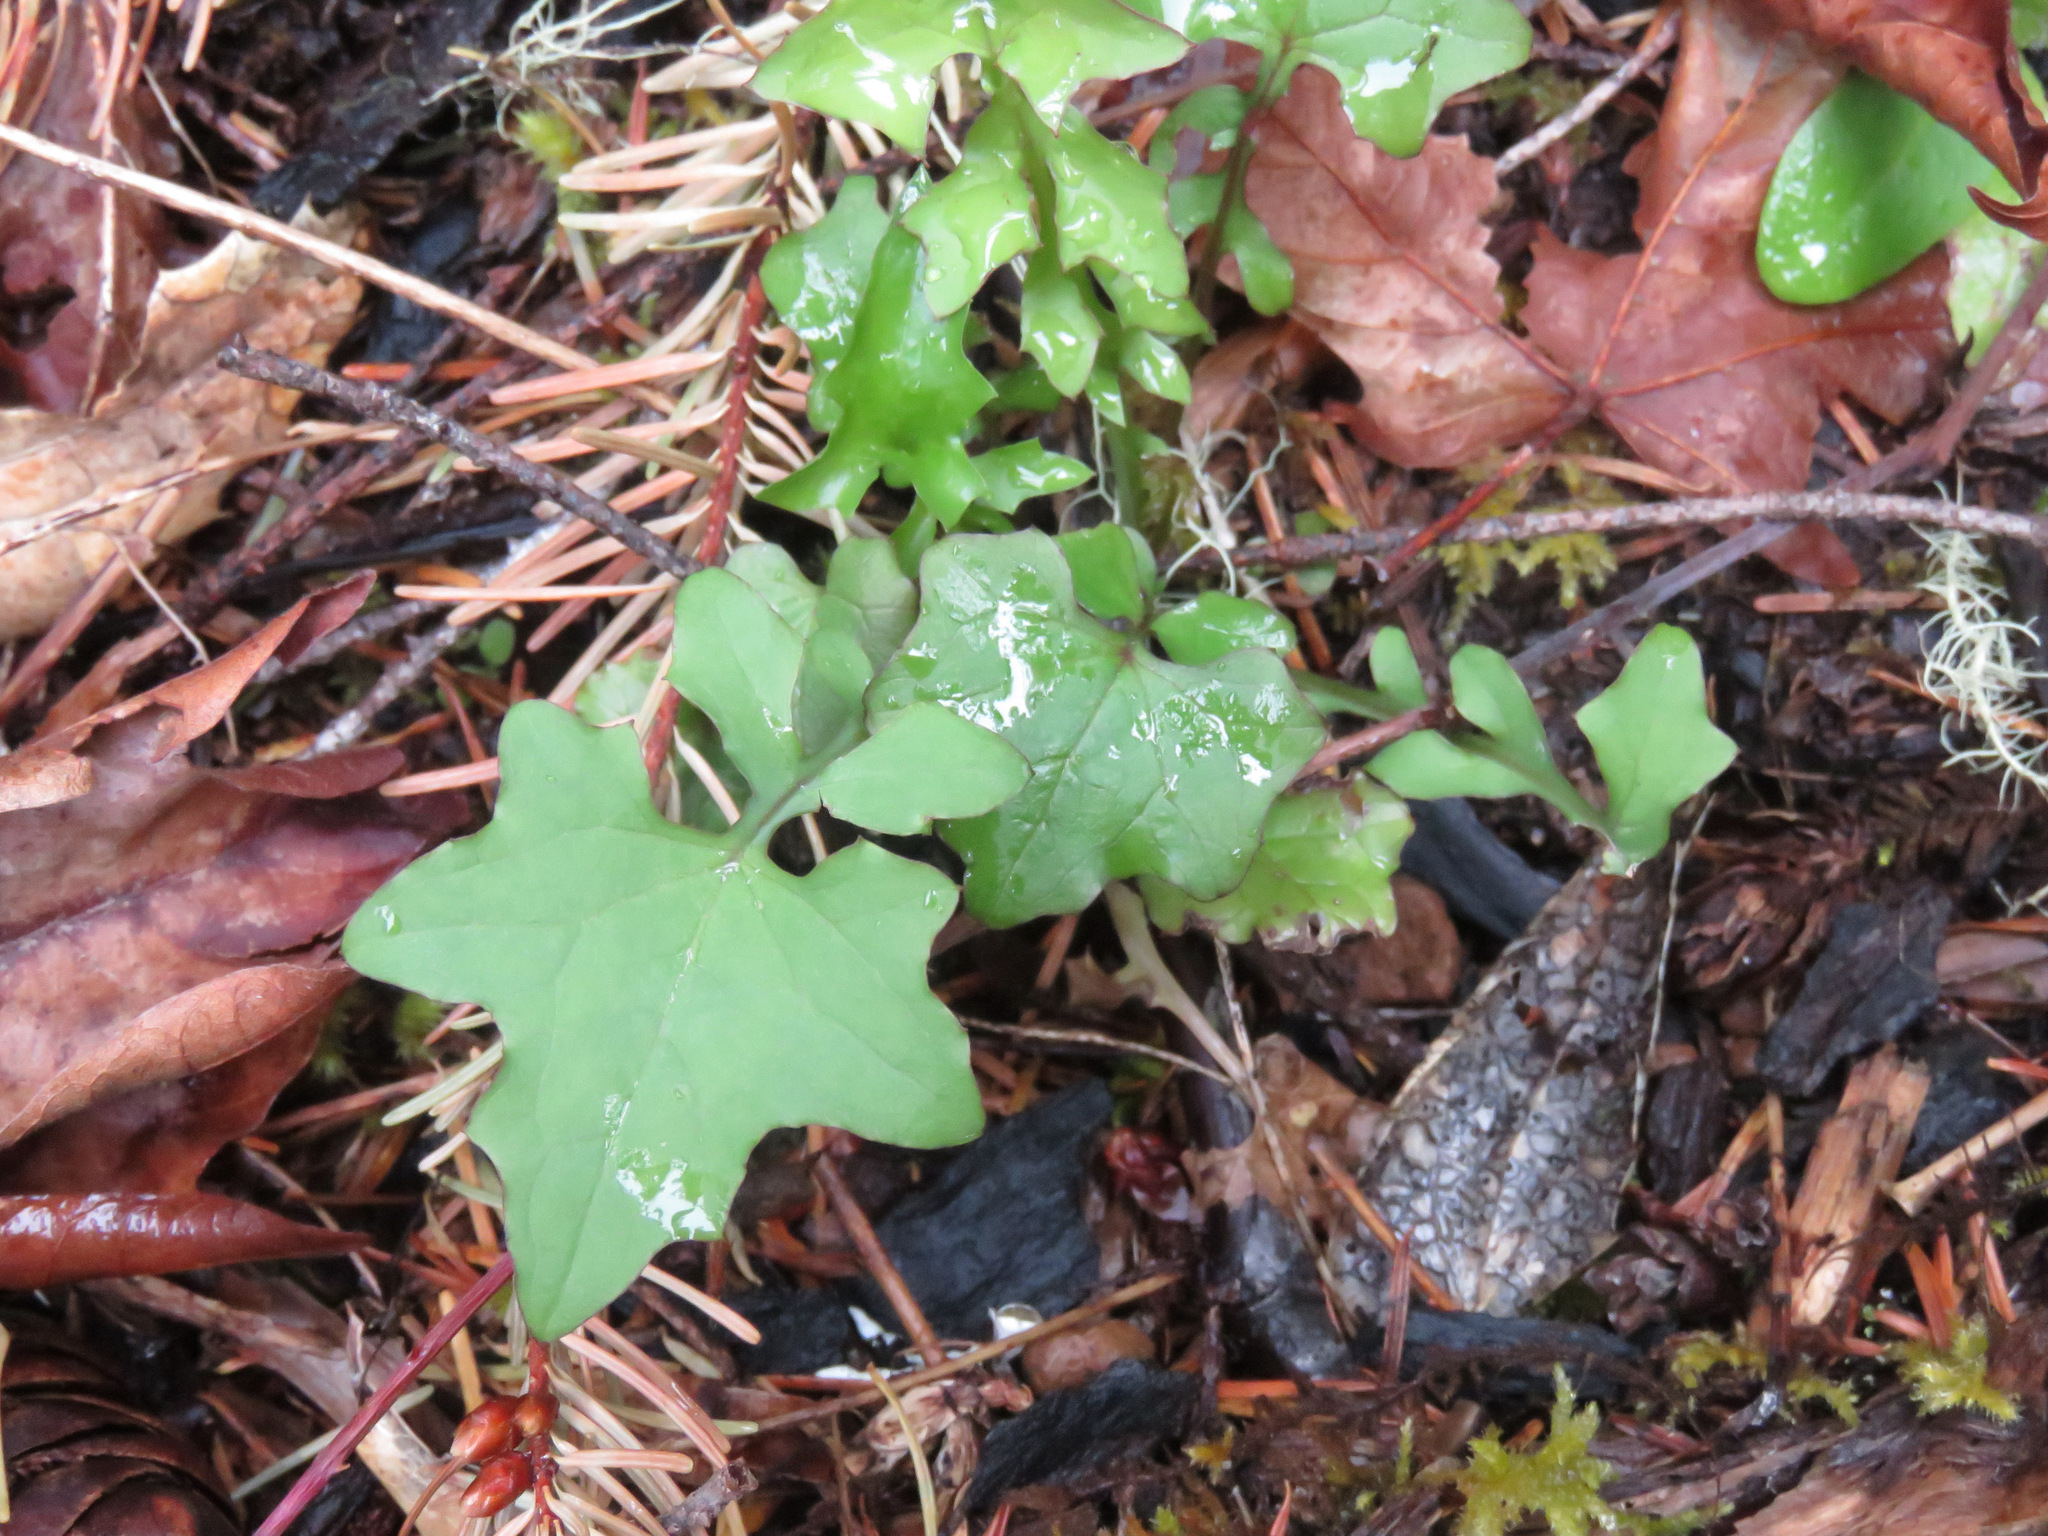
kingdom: Plantae
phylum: Tracheophyta
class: Magnoliopsida
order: Asterales
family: Asteraceae
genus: Mycelis
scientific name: Mycelis muralis
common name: Wall lettuce
